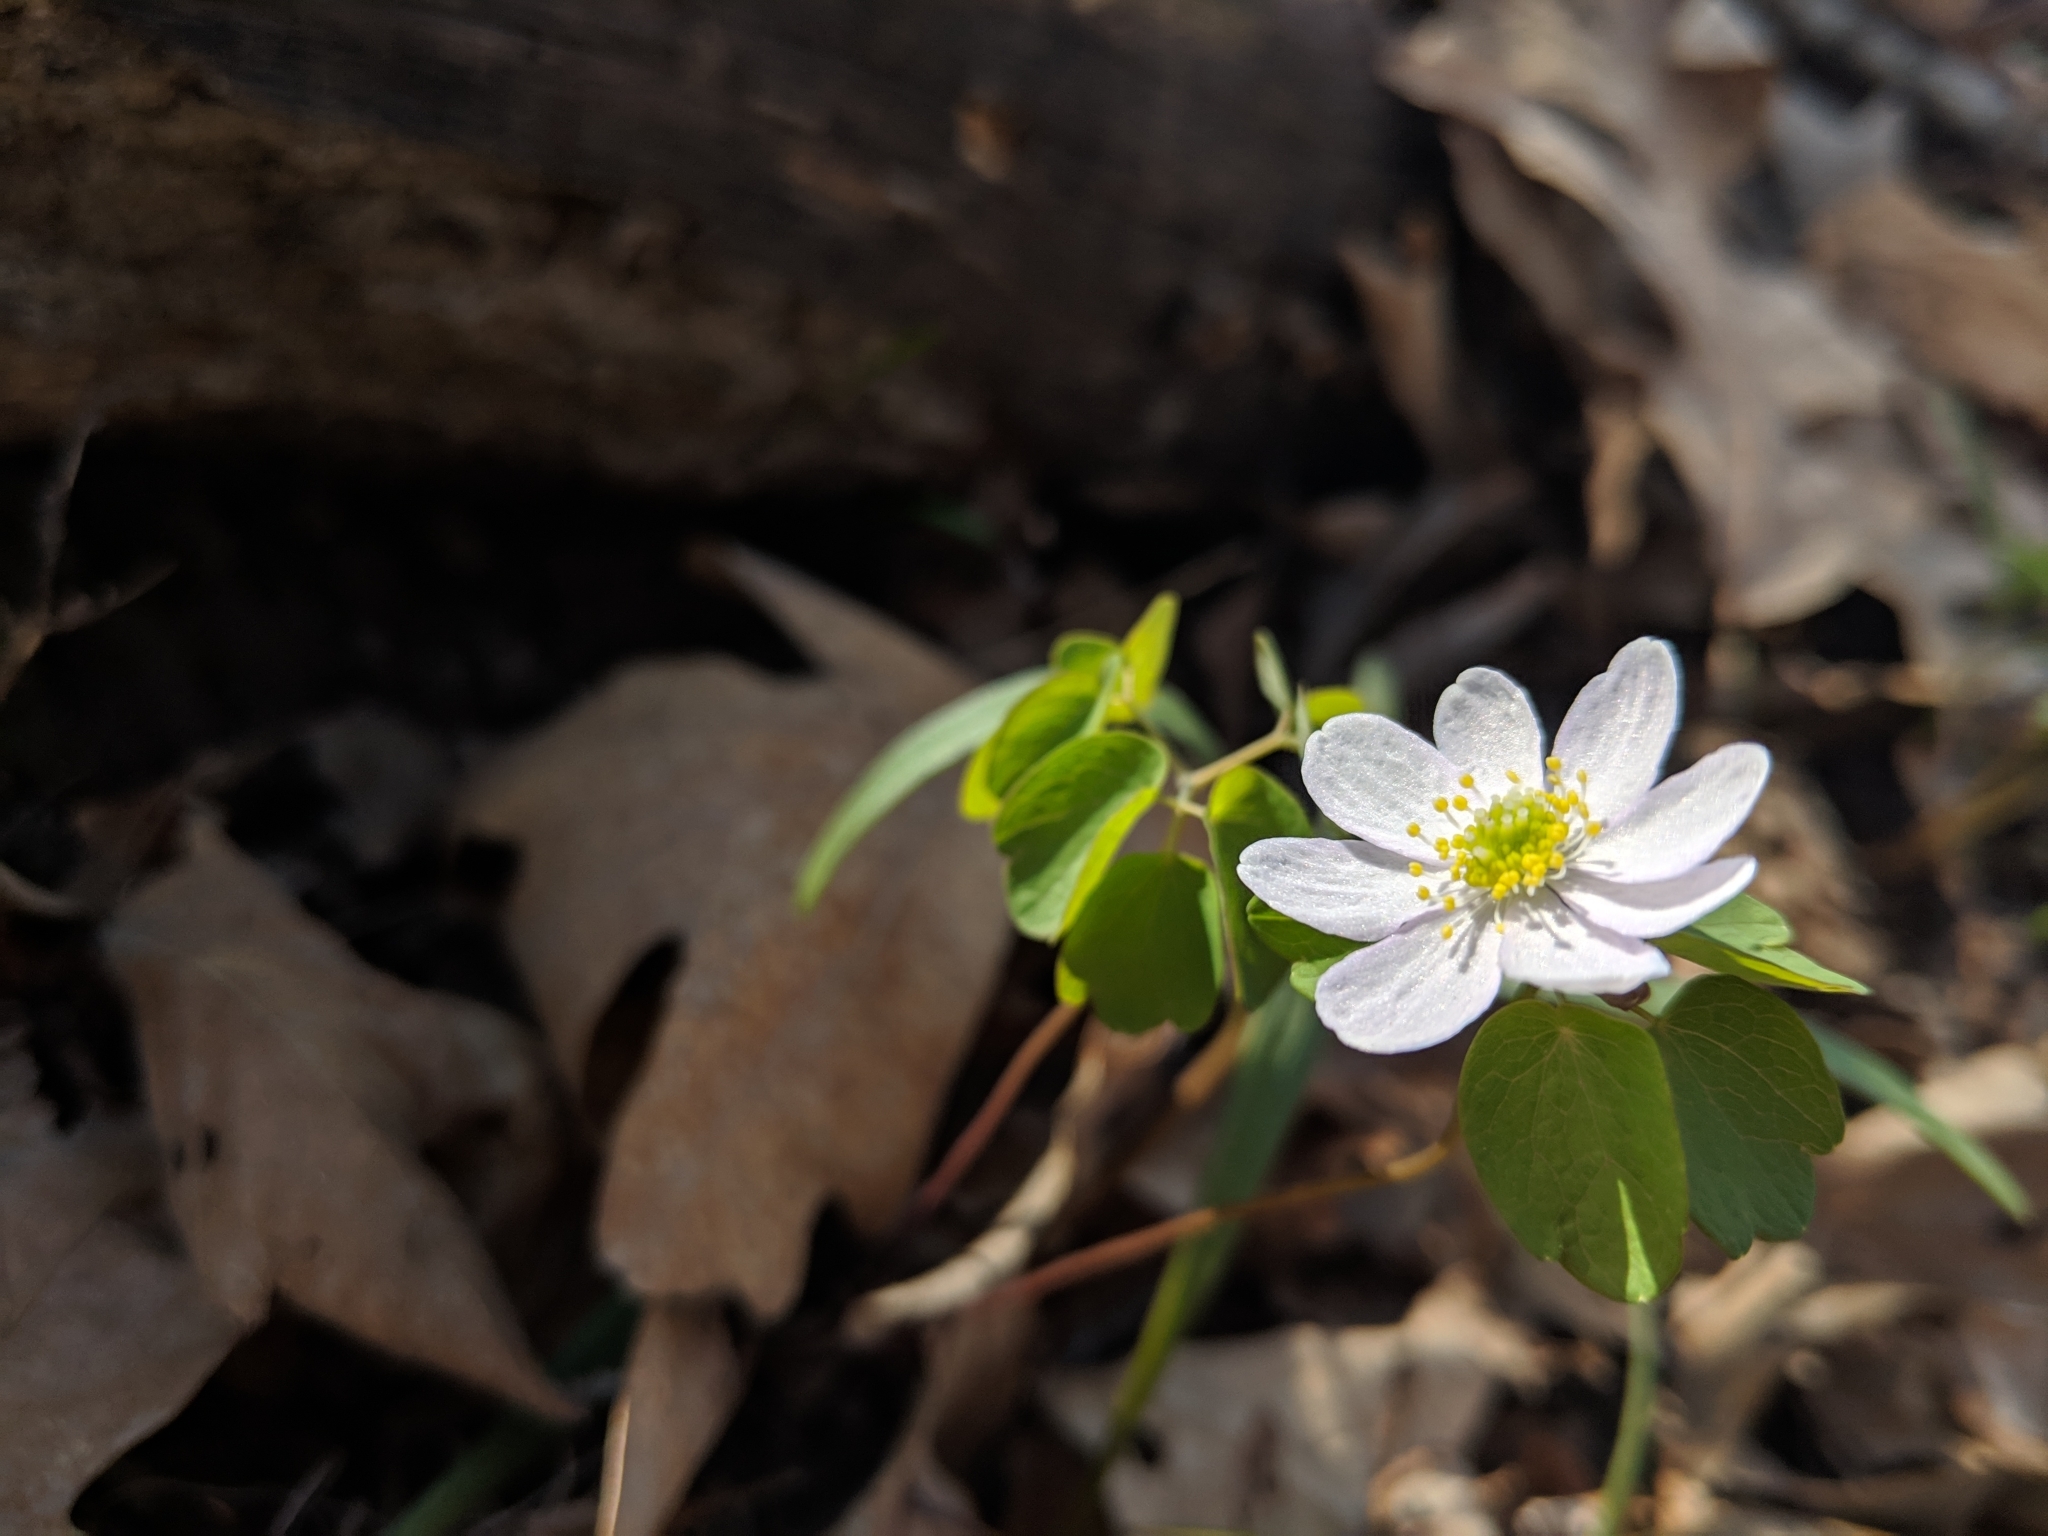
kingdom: Plantae
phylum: Tracheophyta
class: Magnoliopsida
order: Ranunculales
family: Ranunculaceae
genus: Thalictrum
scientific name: Thalictrum thalictroides
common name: Rue-anemone
